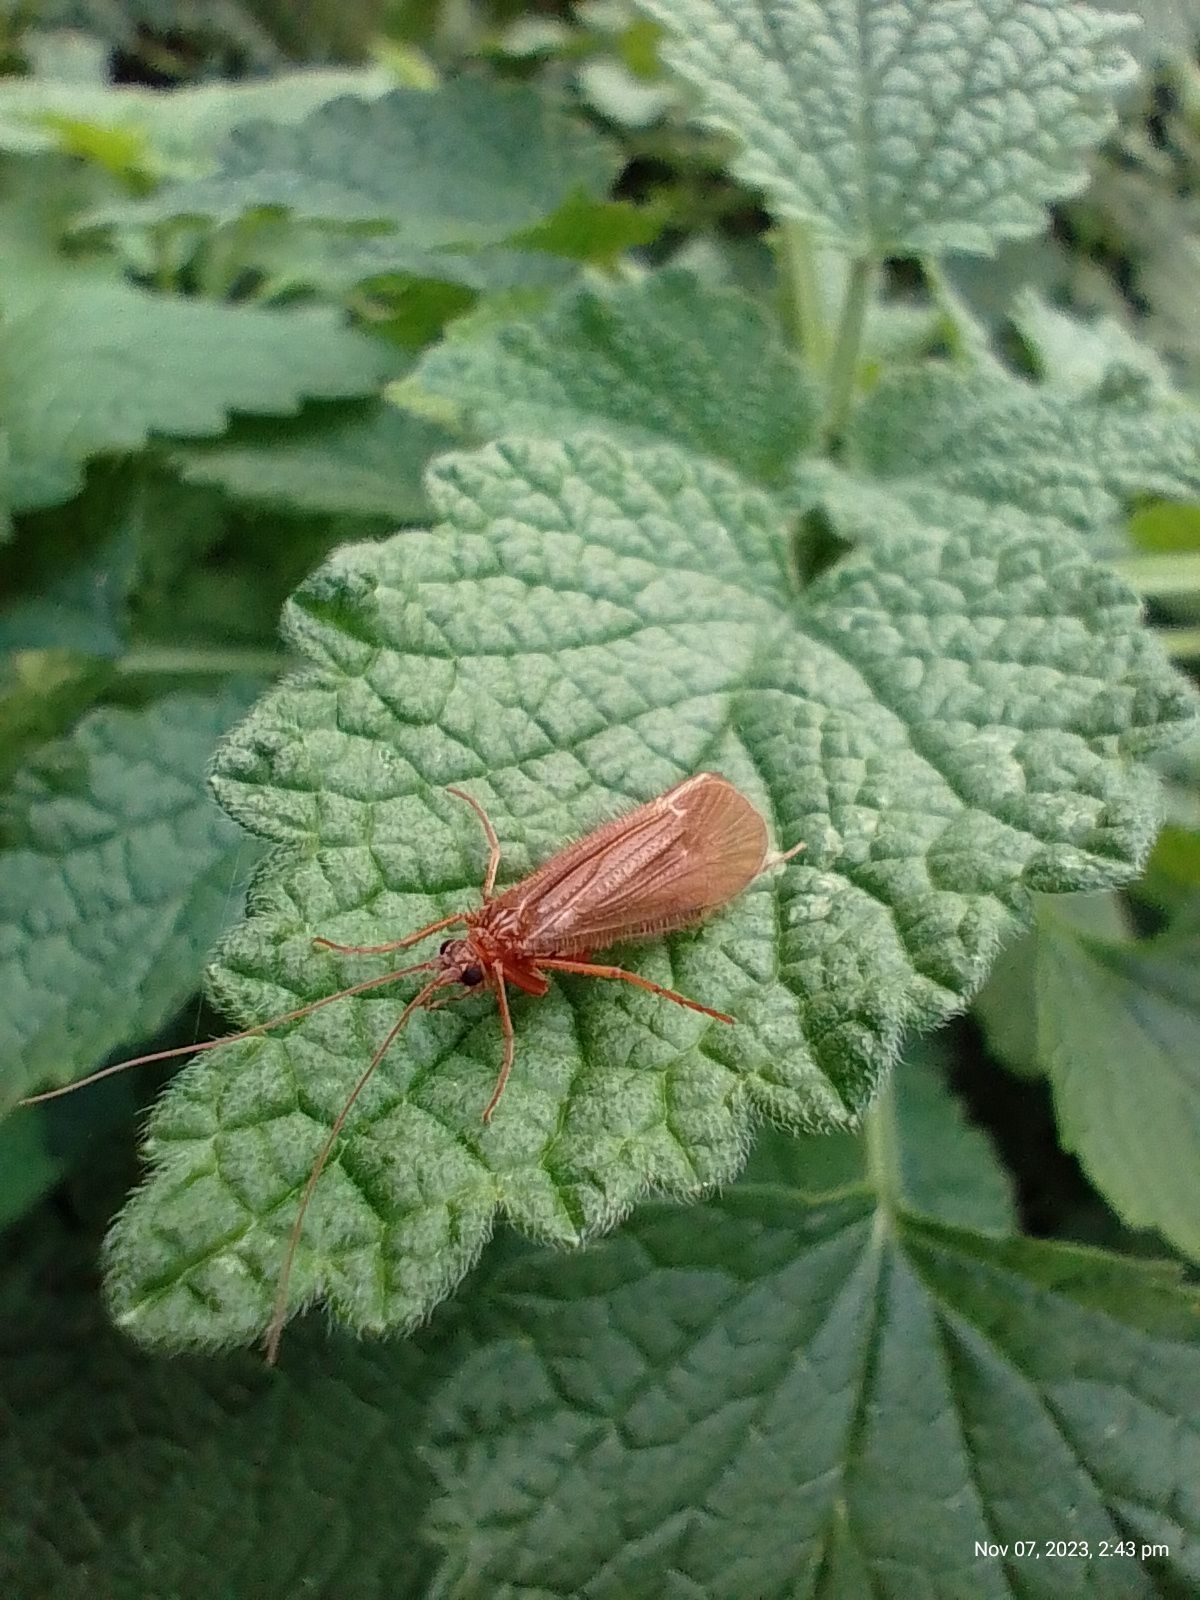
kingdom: Animalia
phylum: Arthropoda
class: Insecta
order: Trichoptera
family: Limnephilidae
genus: Chaetopteryx
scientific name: Chaetopteryx villosa
